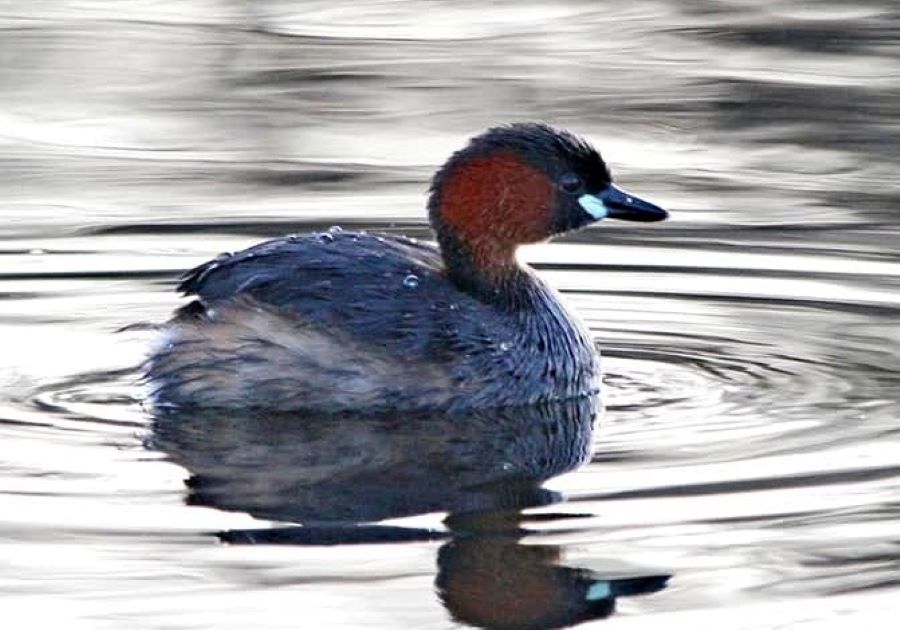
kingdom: Animalia
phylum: Chordata
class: Aves
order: Podicipediformes
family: Podicipedidae
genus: Tachybaptus
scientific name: Tachybaptus ruficollis
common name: Little grebe
